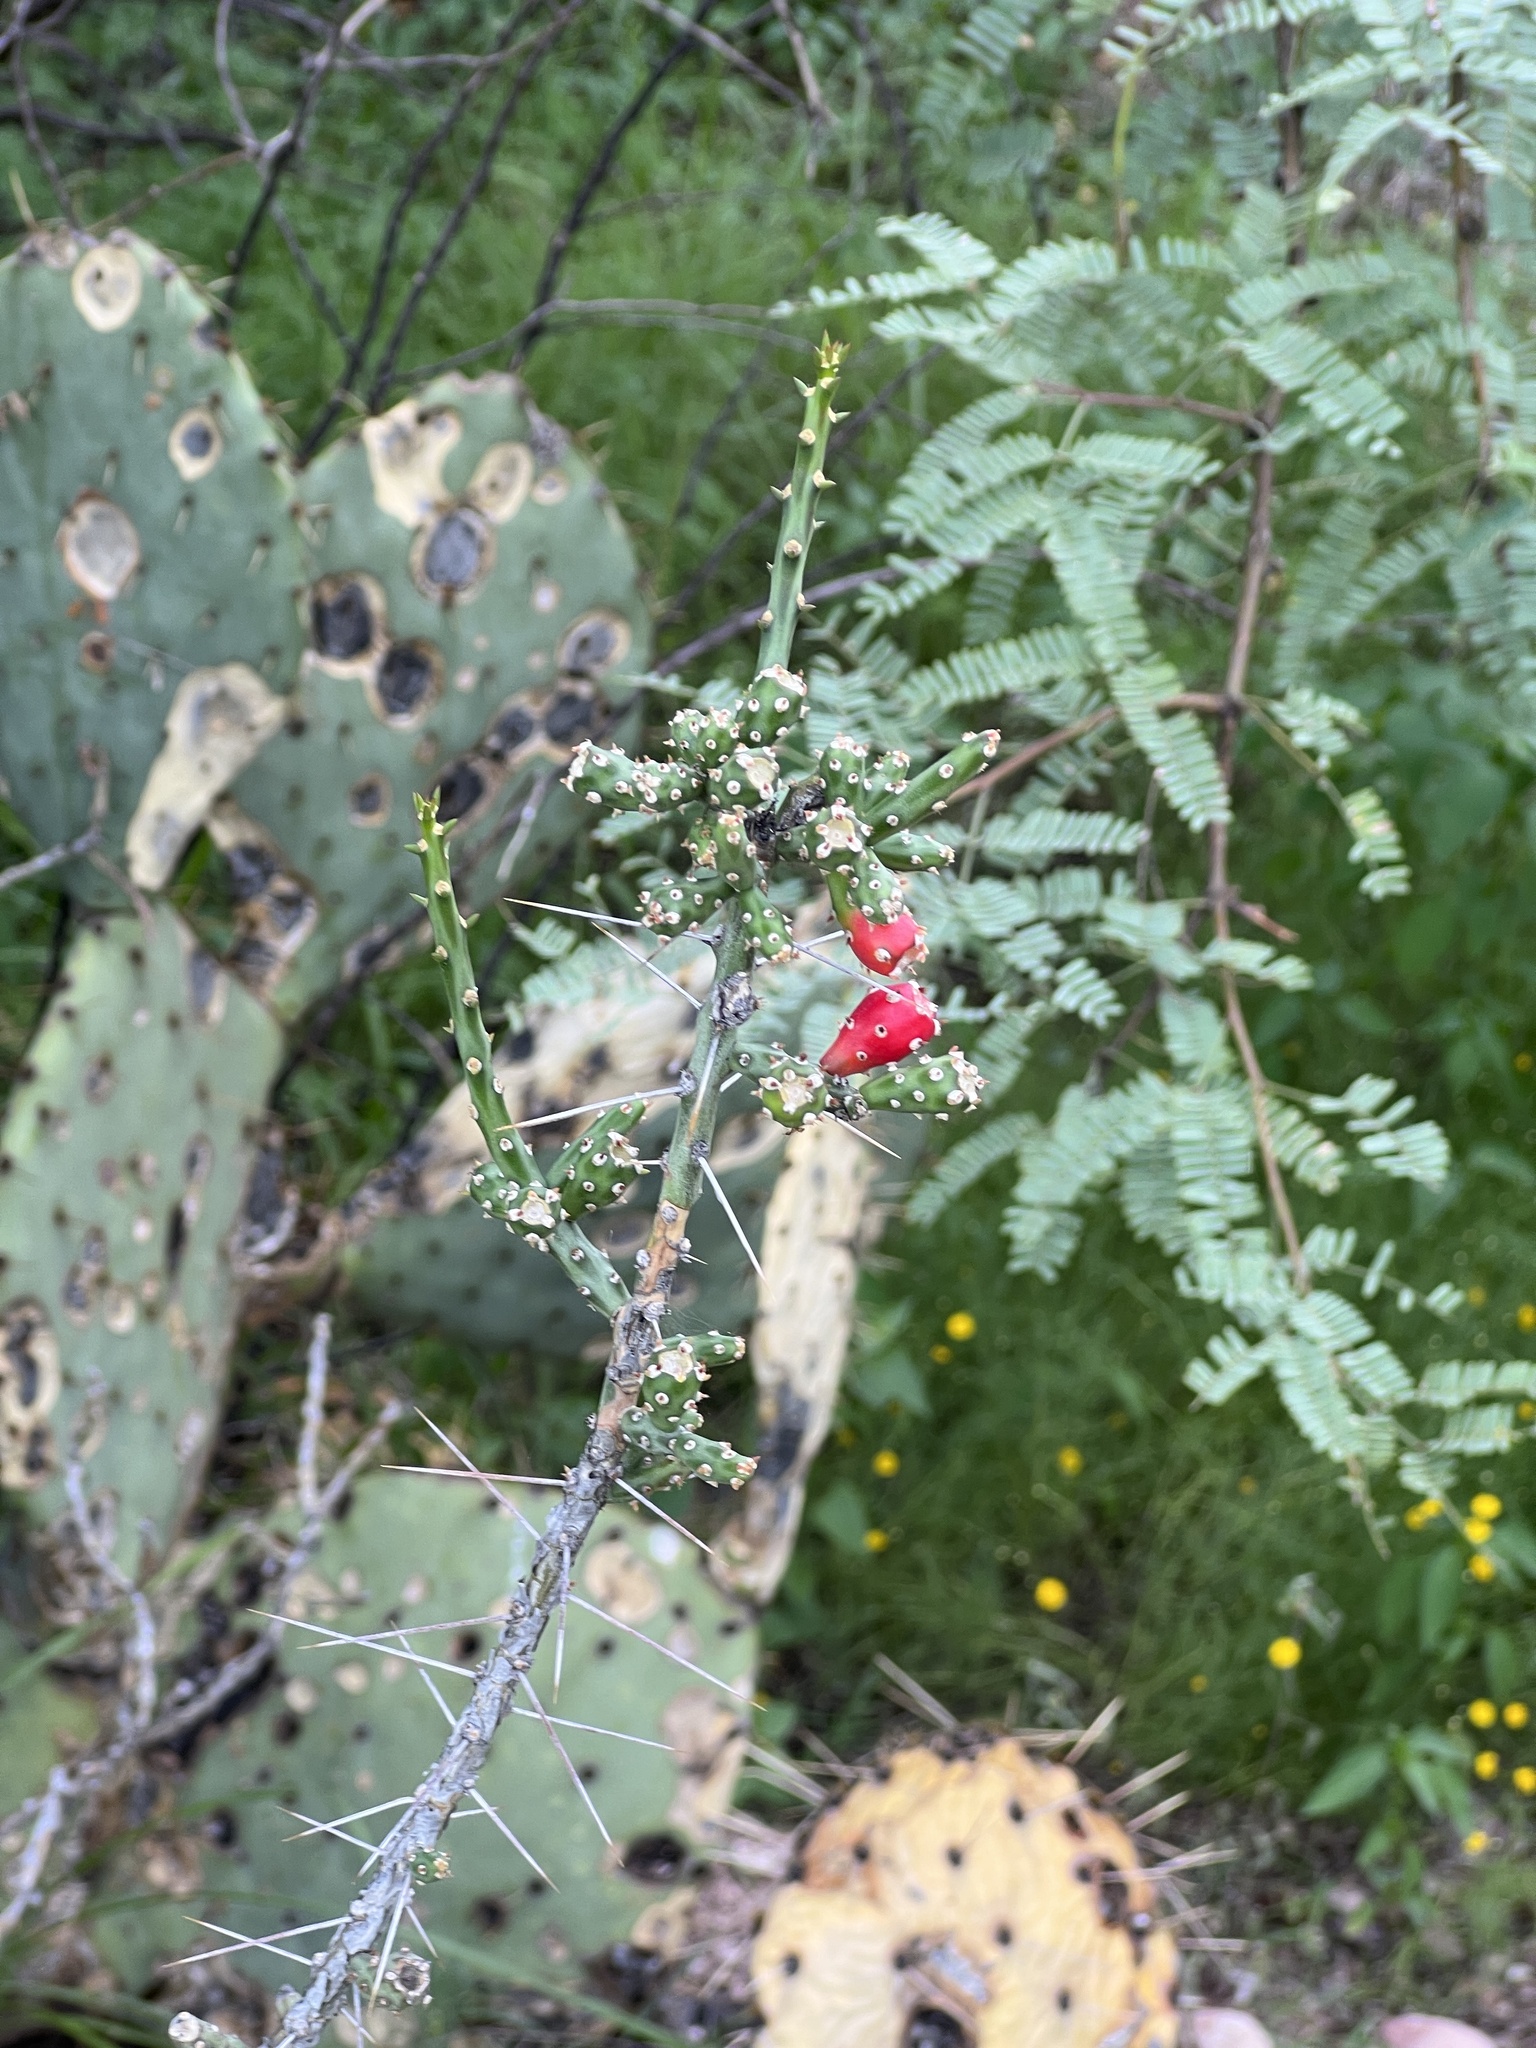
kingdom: Plantae
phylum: Tracheophyta
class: Magnoliopsida
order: Caryophyllales
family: Cactaceae
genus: Cylindropuntia
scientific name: Cylindropuntia leptocaulis
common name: Christmas cactus
